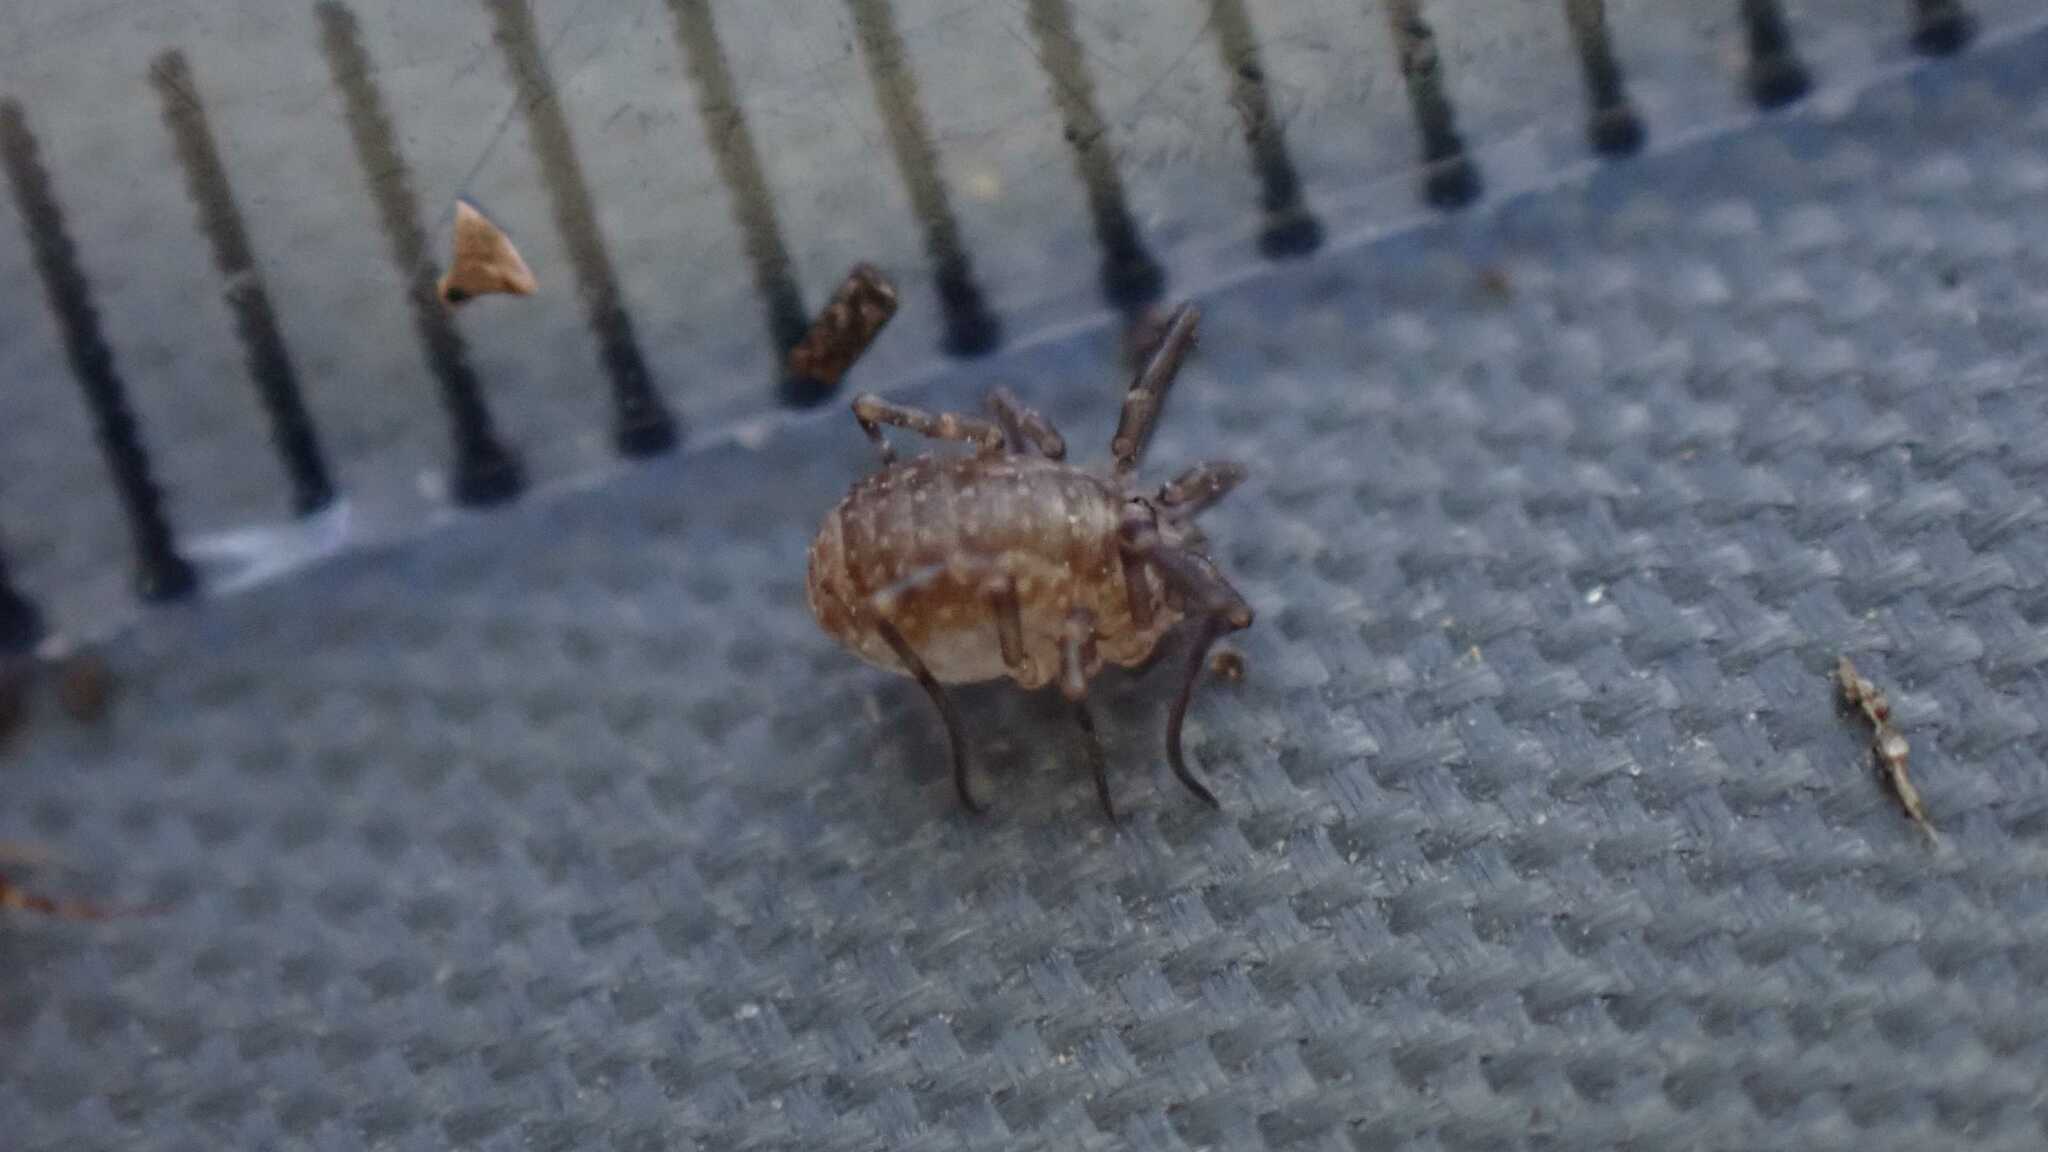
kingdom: Animalia
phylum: Arthropoda
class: Arachnida
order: Opiliones
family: Phalangiidae
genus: Odiellus
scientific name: Odiellus spinosus
